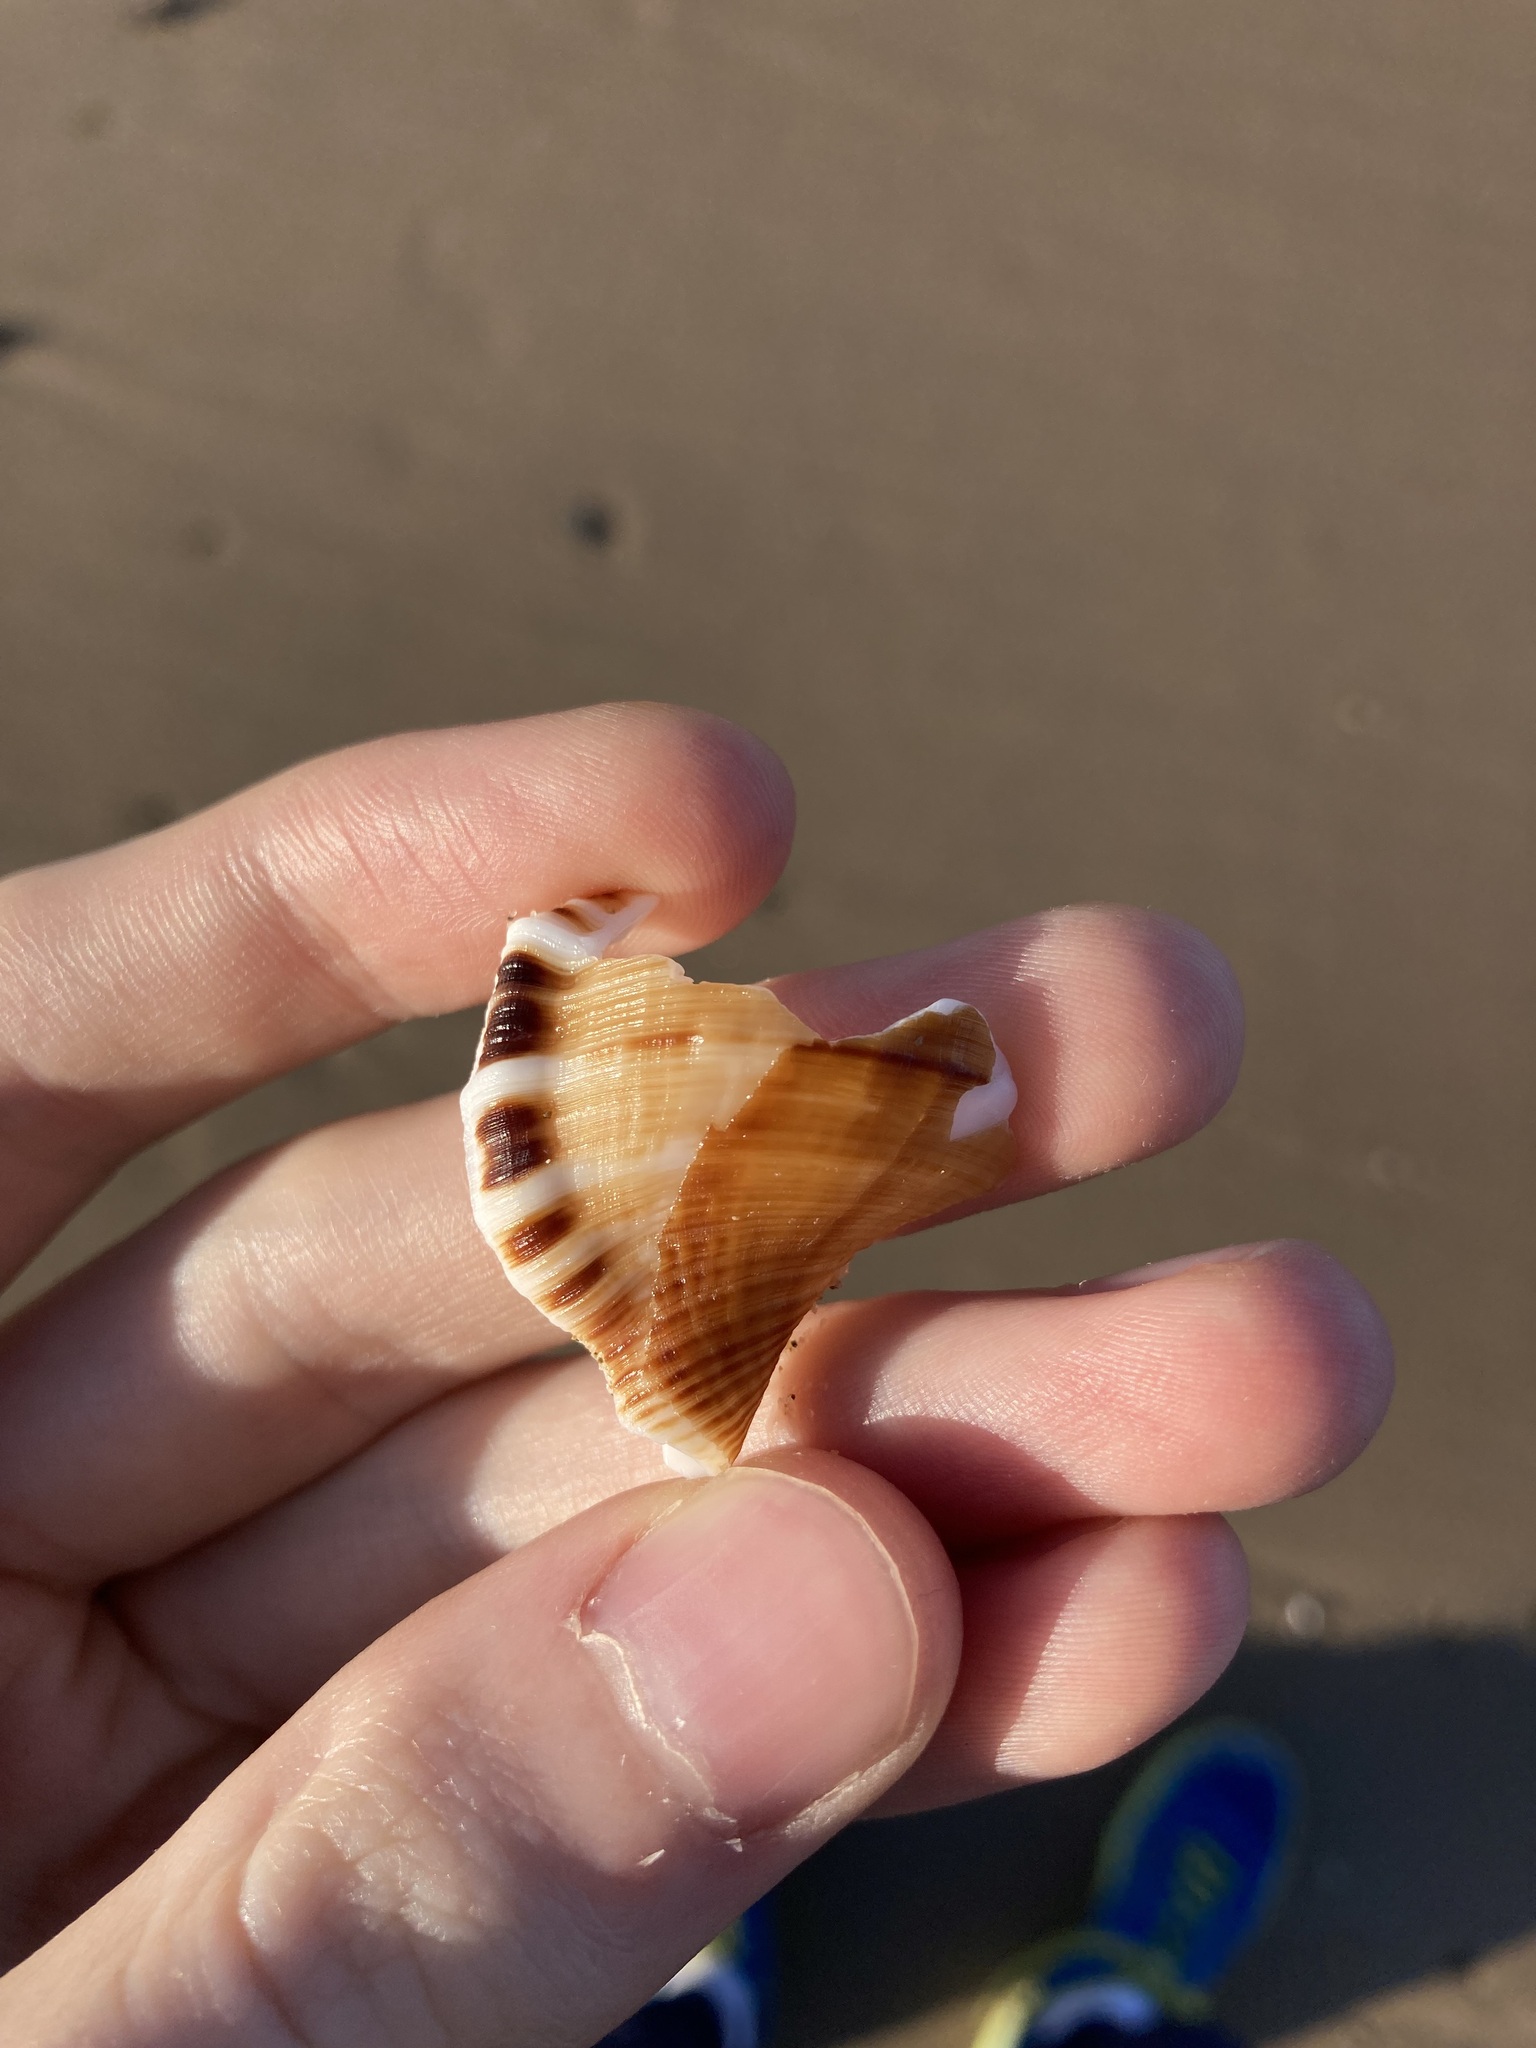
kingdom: Animalia
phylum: Mollusca
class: Gastropoda
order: Littorinimorpha
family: Ranellidae
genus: Ranella
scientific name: Ranella australasia
